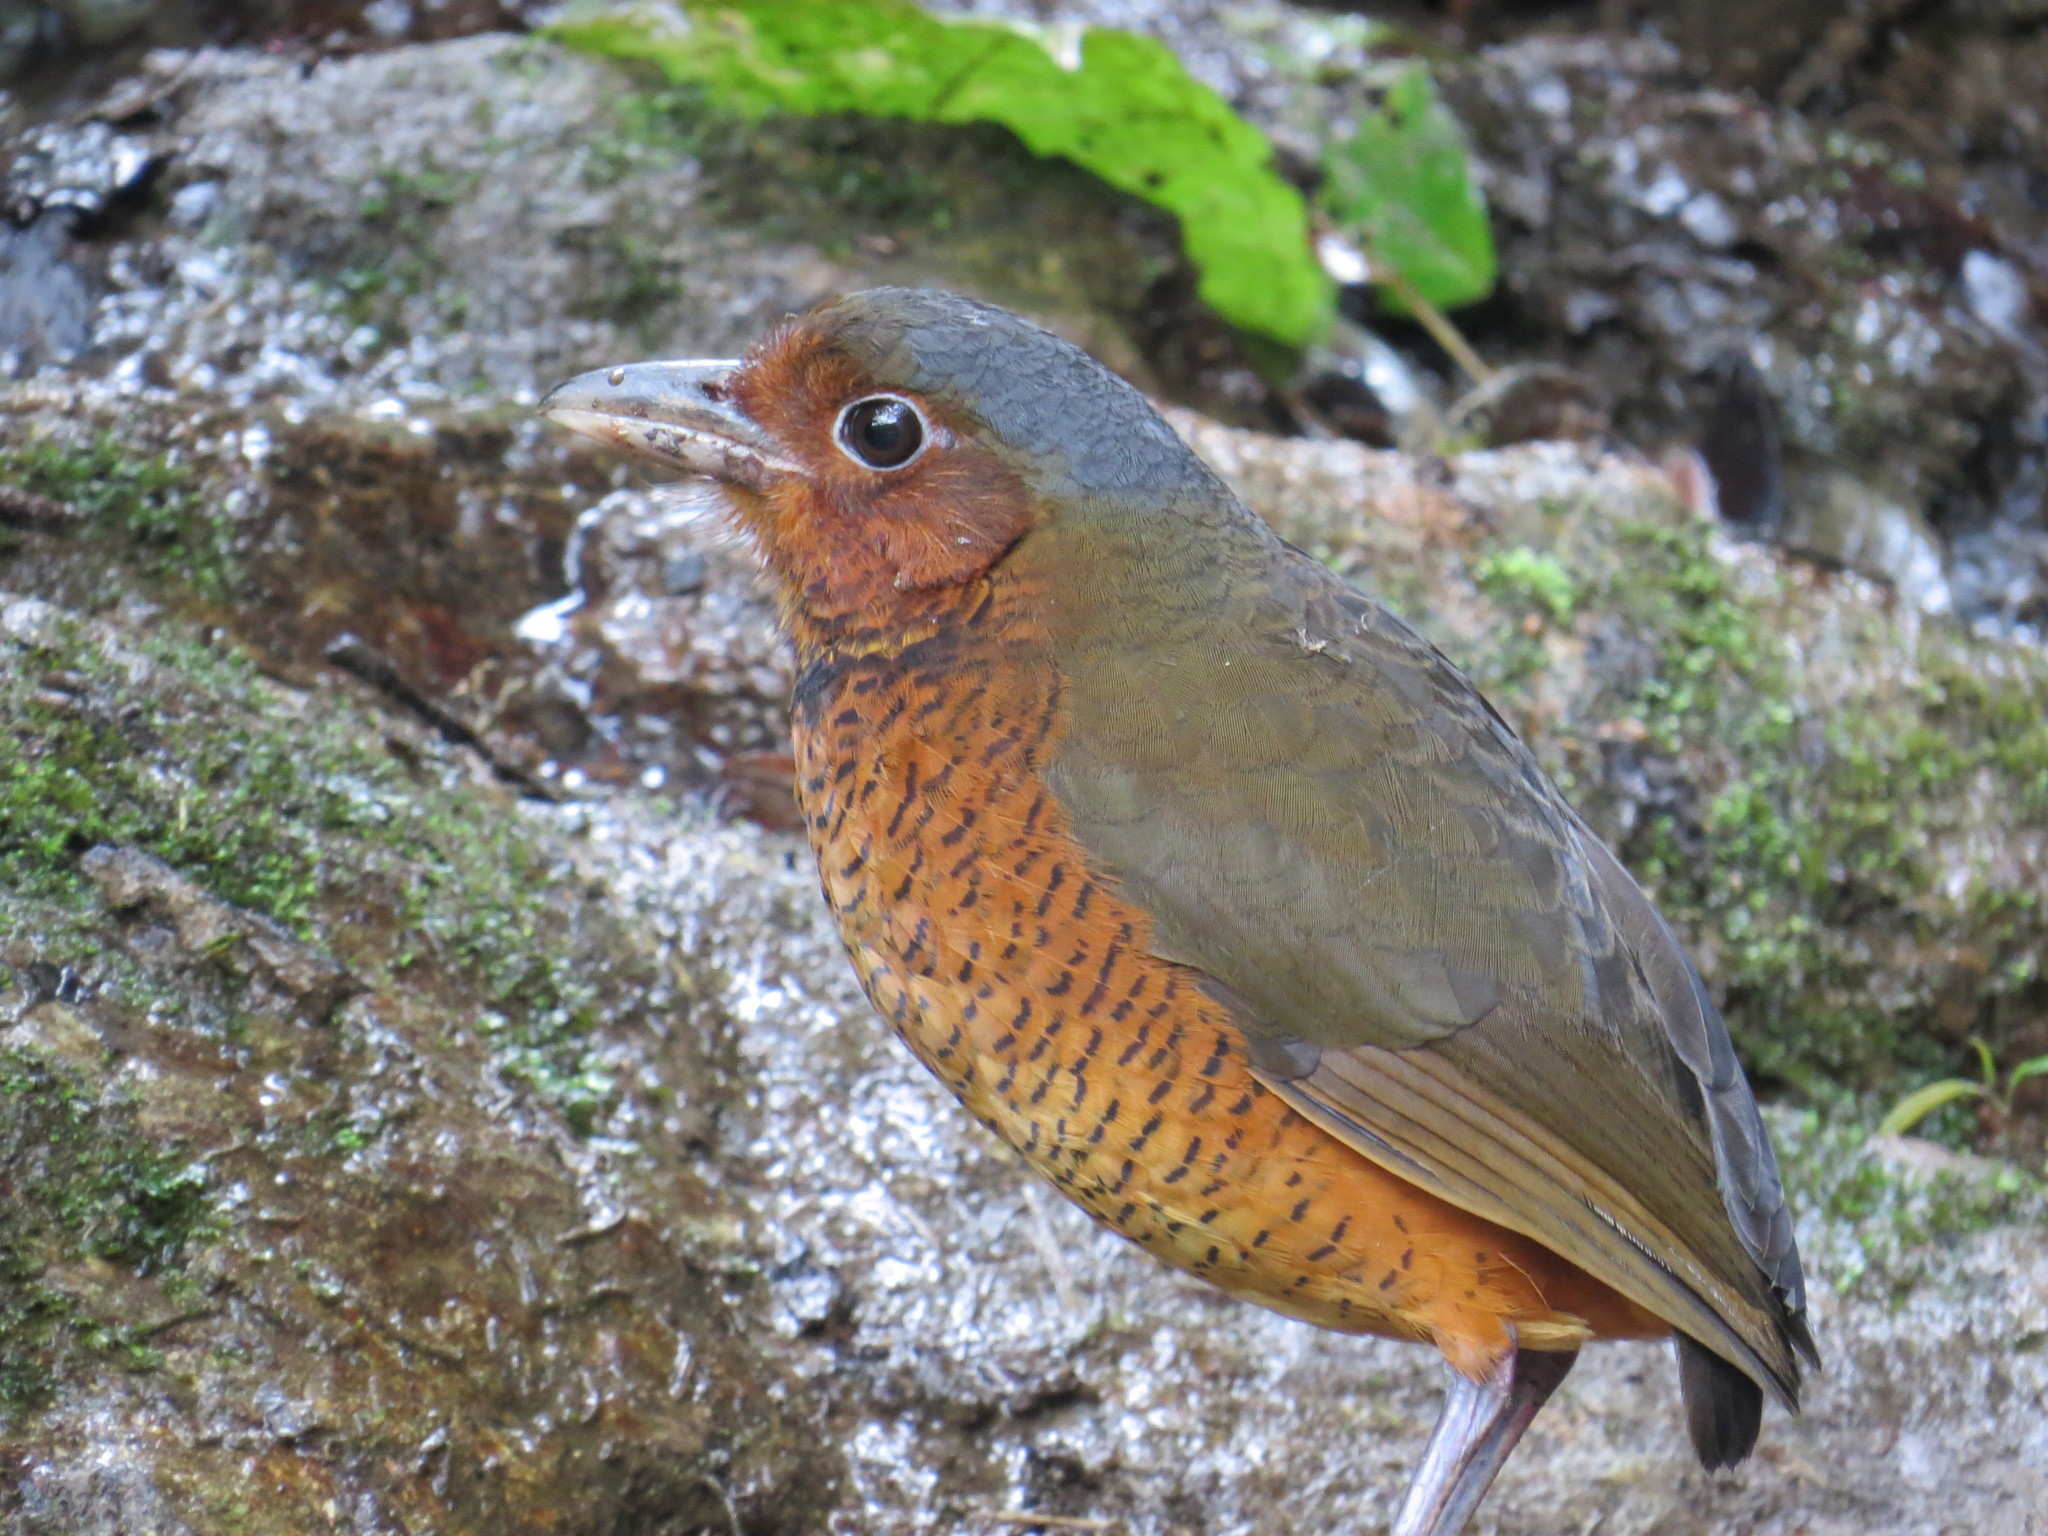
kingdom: Animalia
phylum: Chordata
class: Aves
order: Passeriformes
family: Grallariidae
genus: Grallaria
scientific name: Grallaria gigantea
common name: Giant antpitta
